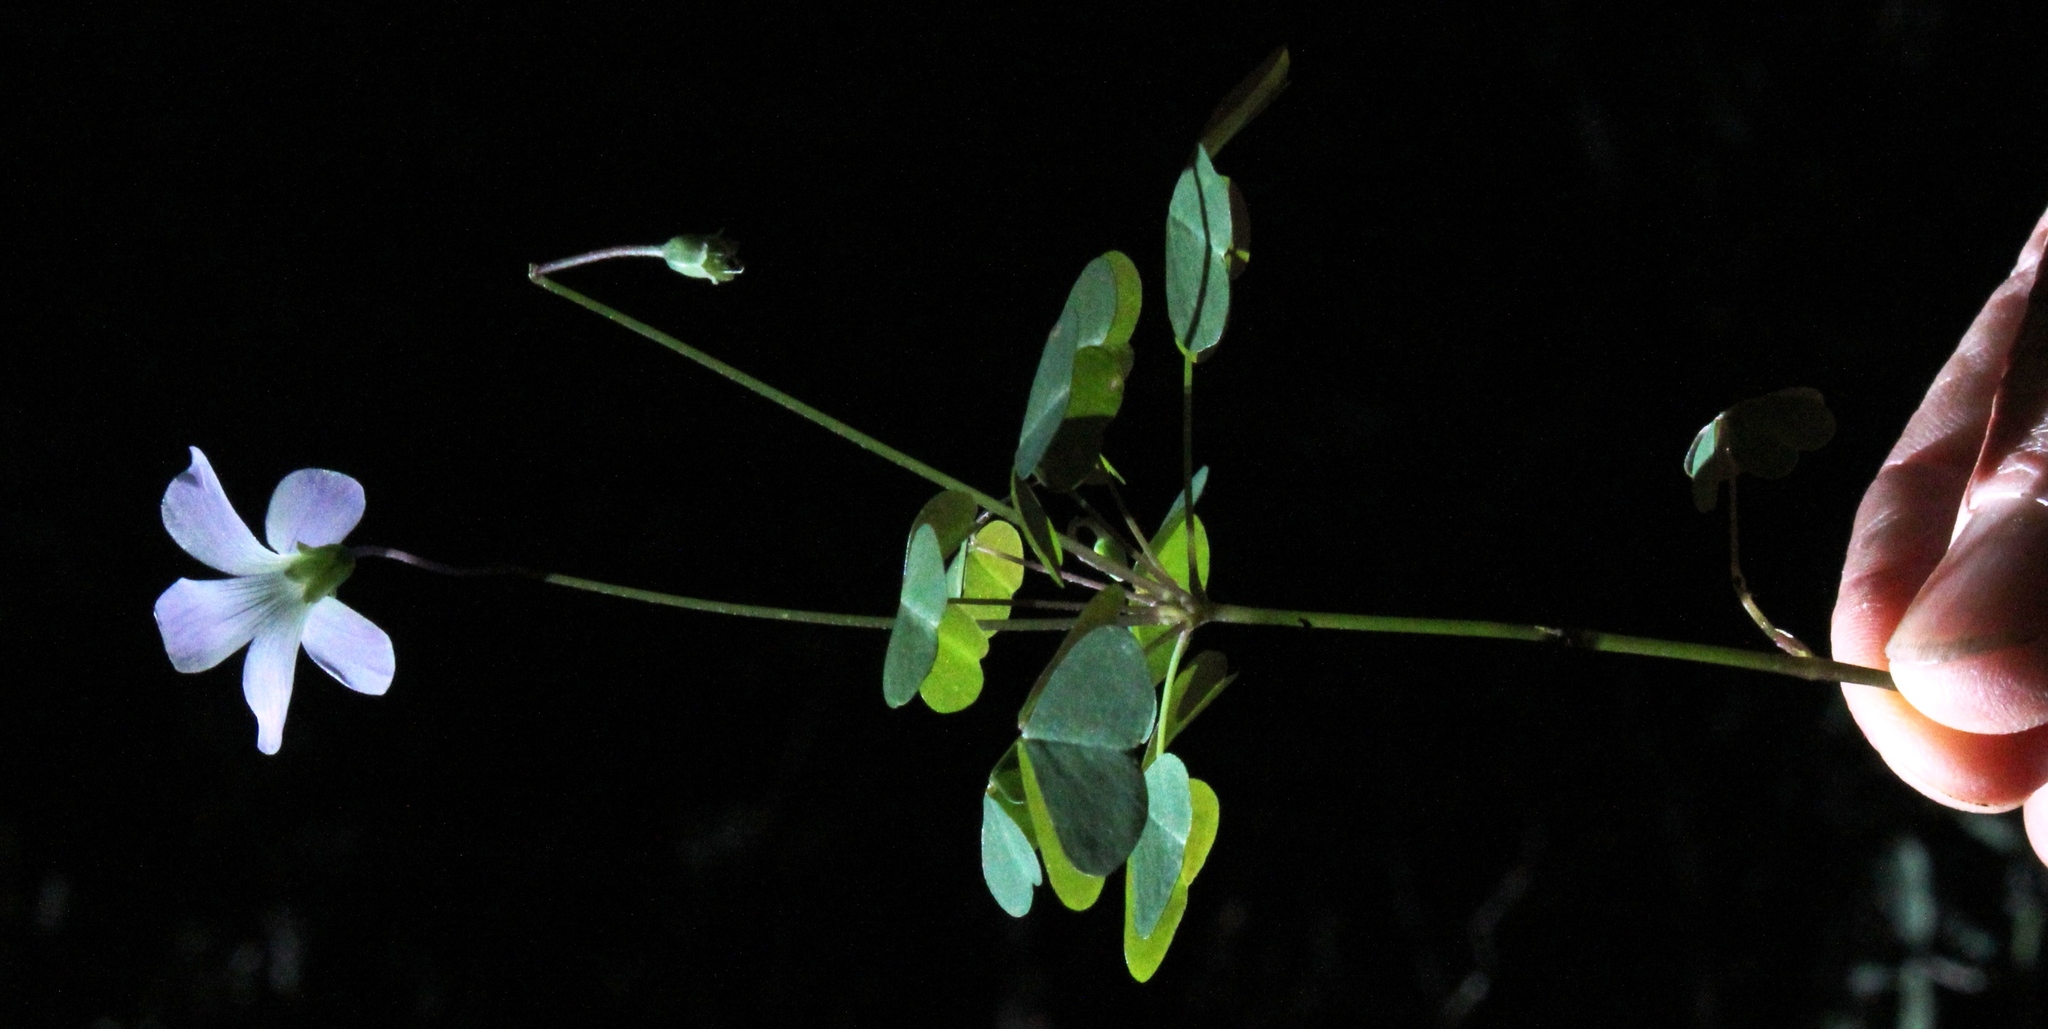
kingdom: Plantae
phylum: Tracheophyta
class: Magnoliopsida
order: Oxalidales
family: Oxalidaceae
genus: Oxalis
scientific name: Oxalis incarnata
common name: Pale pink-sorrel
